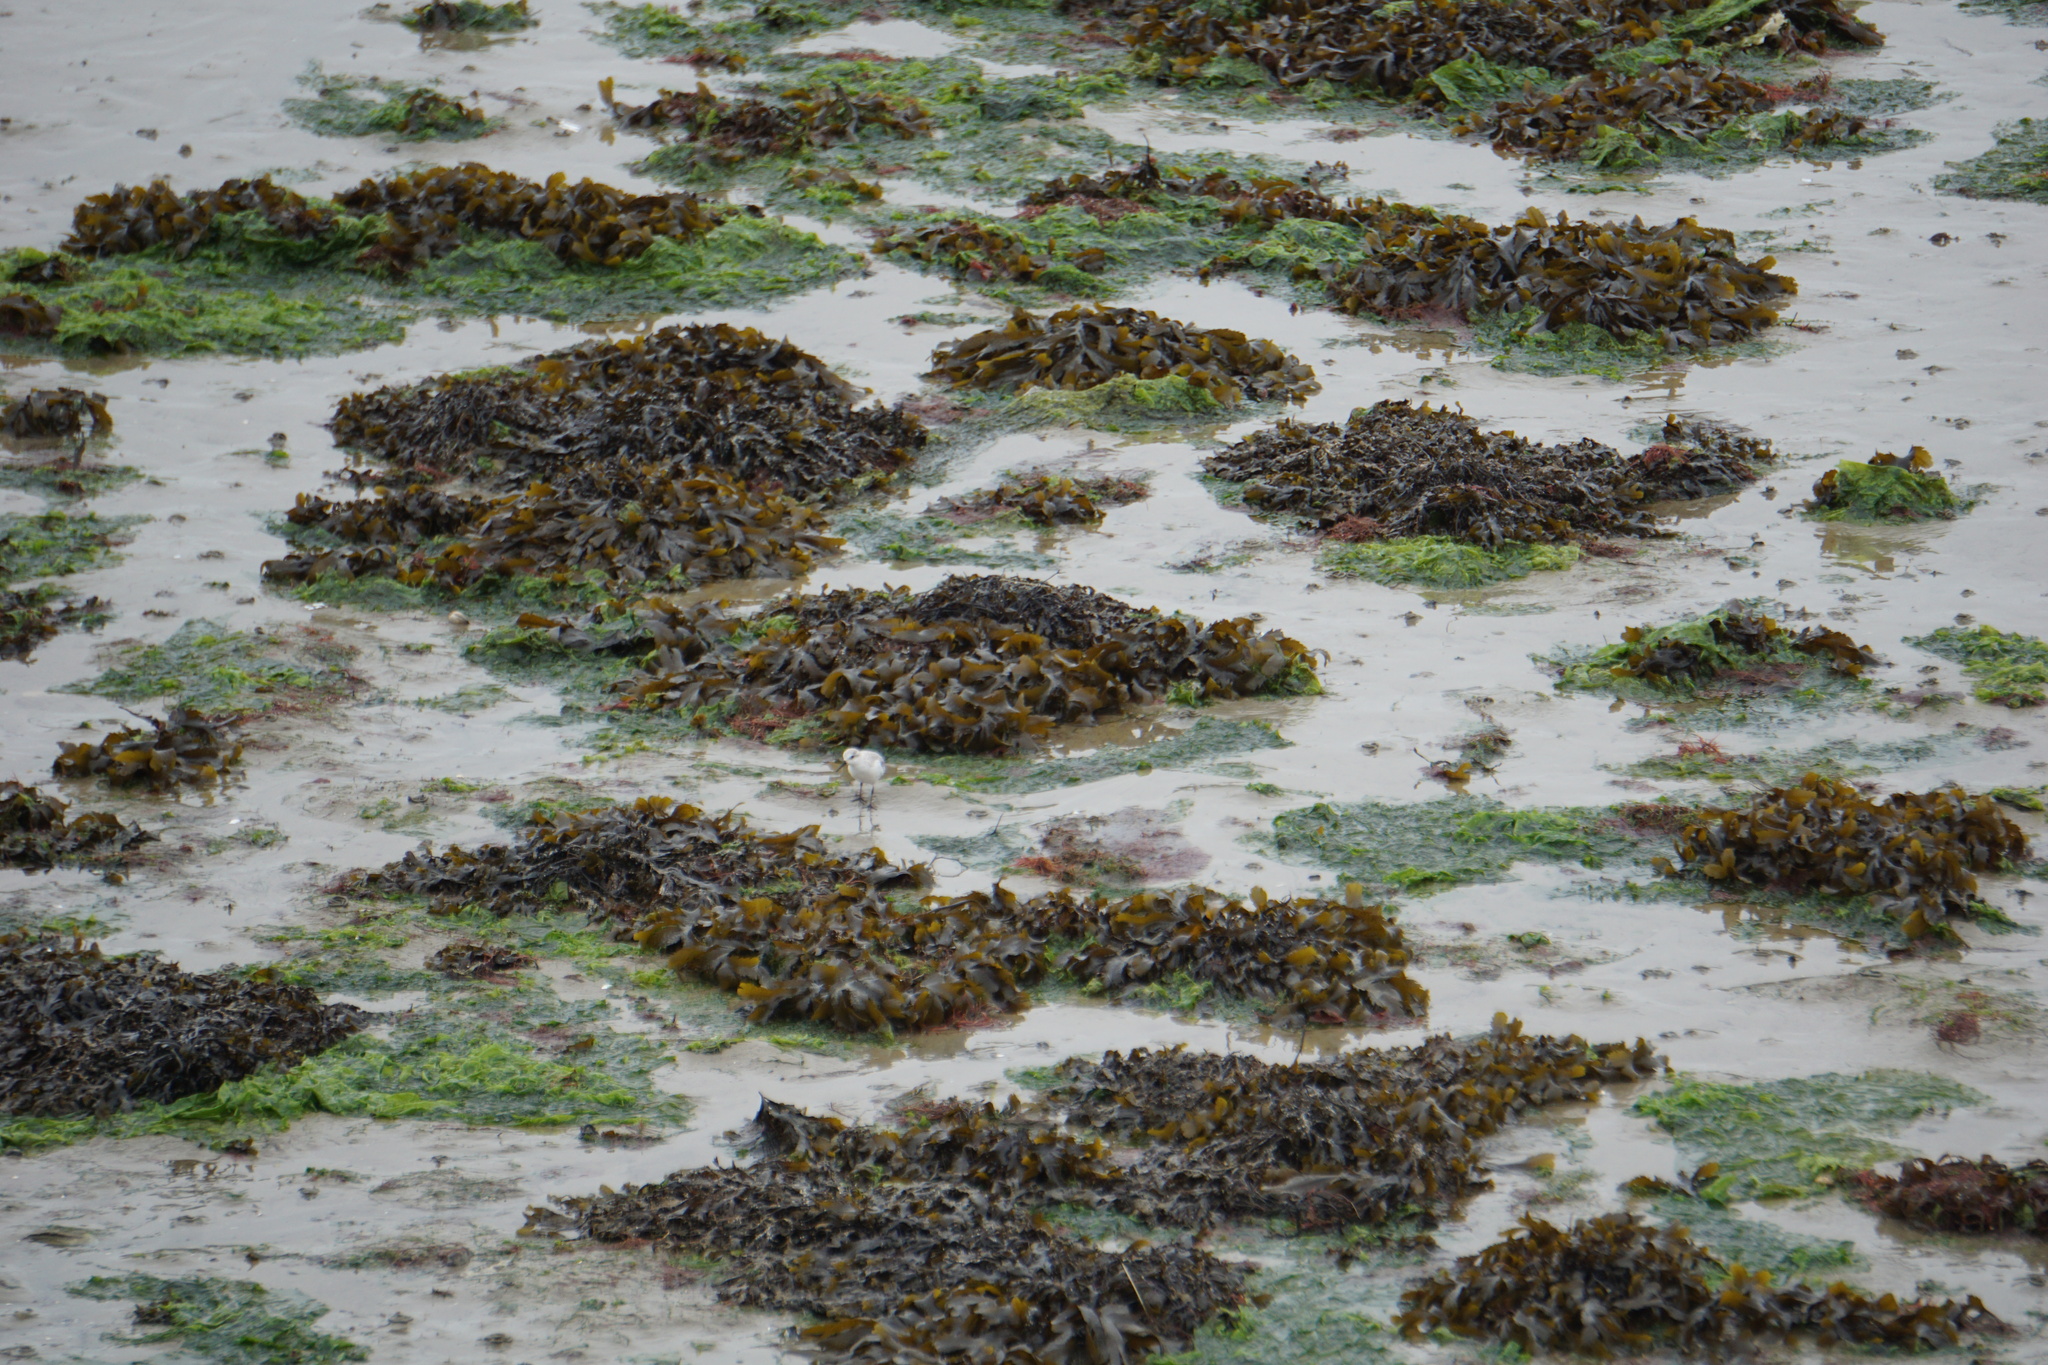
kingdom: Animalia
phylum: Chordata
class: Aves
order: Charadriiformes
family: Scolopacidae
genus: Calidris
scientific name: Calidris alba
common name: Sanderling
